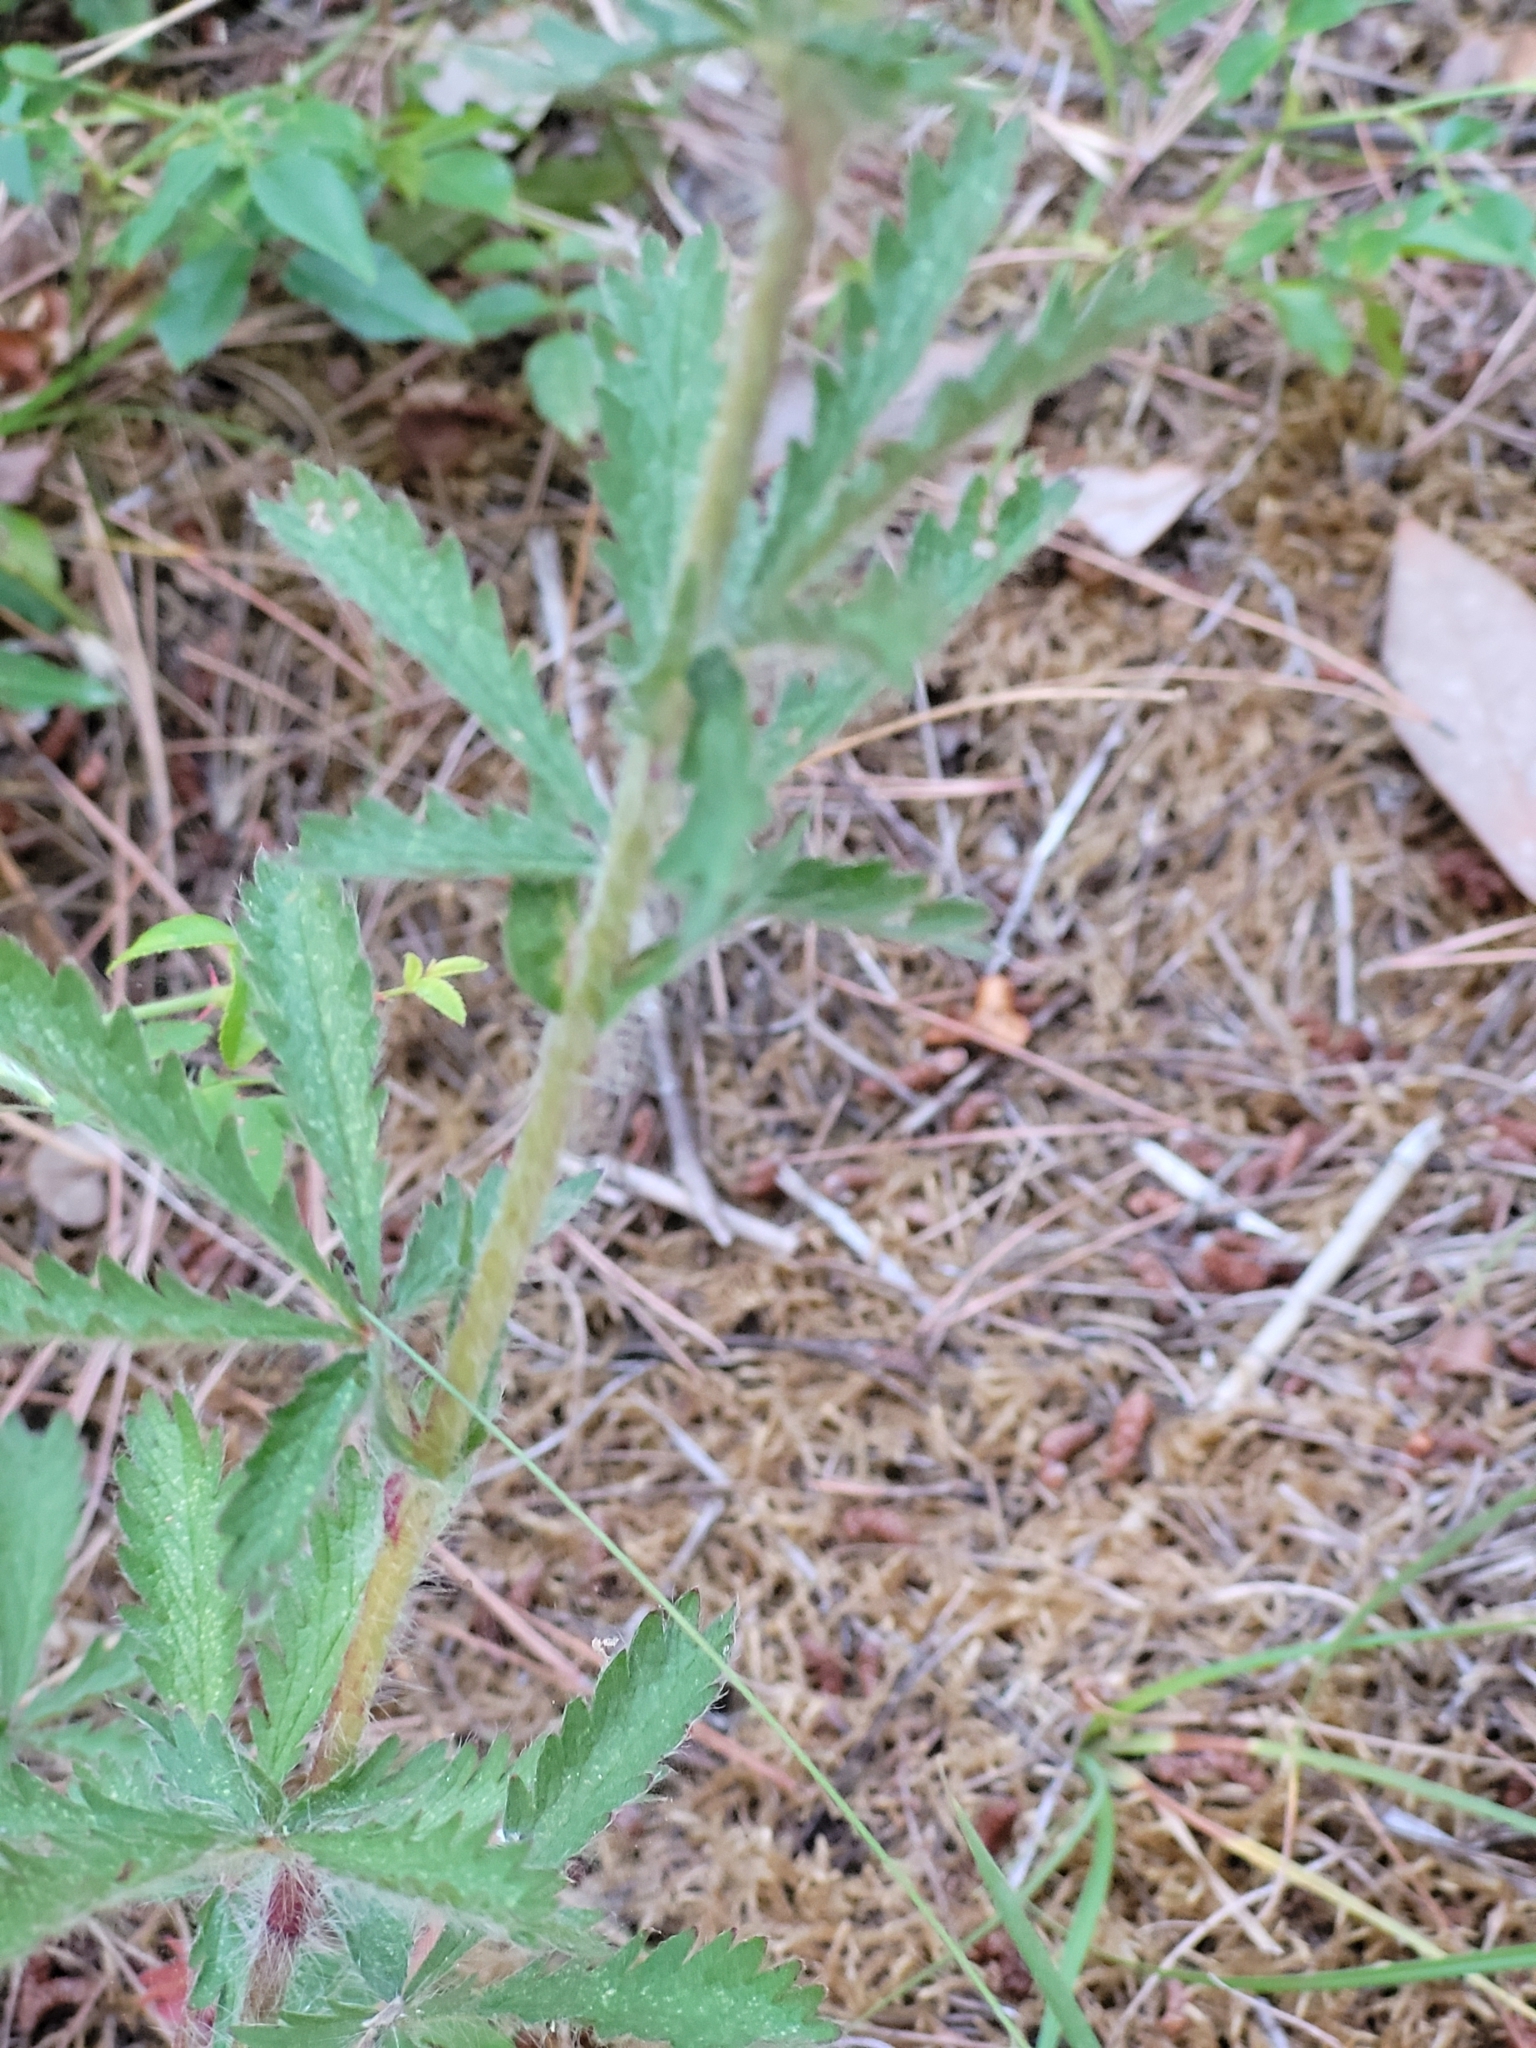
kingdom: Plantae
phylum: Tracheophyta
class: Magnoliopsida
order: Rosales
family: Rosaceae
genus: Potentilla
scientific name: Potentilla recta
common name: Sulphur cinquefoil
